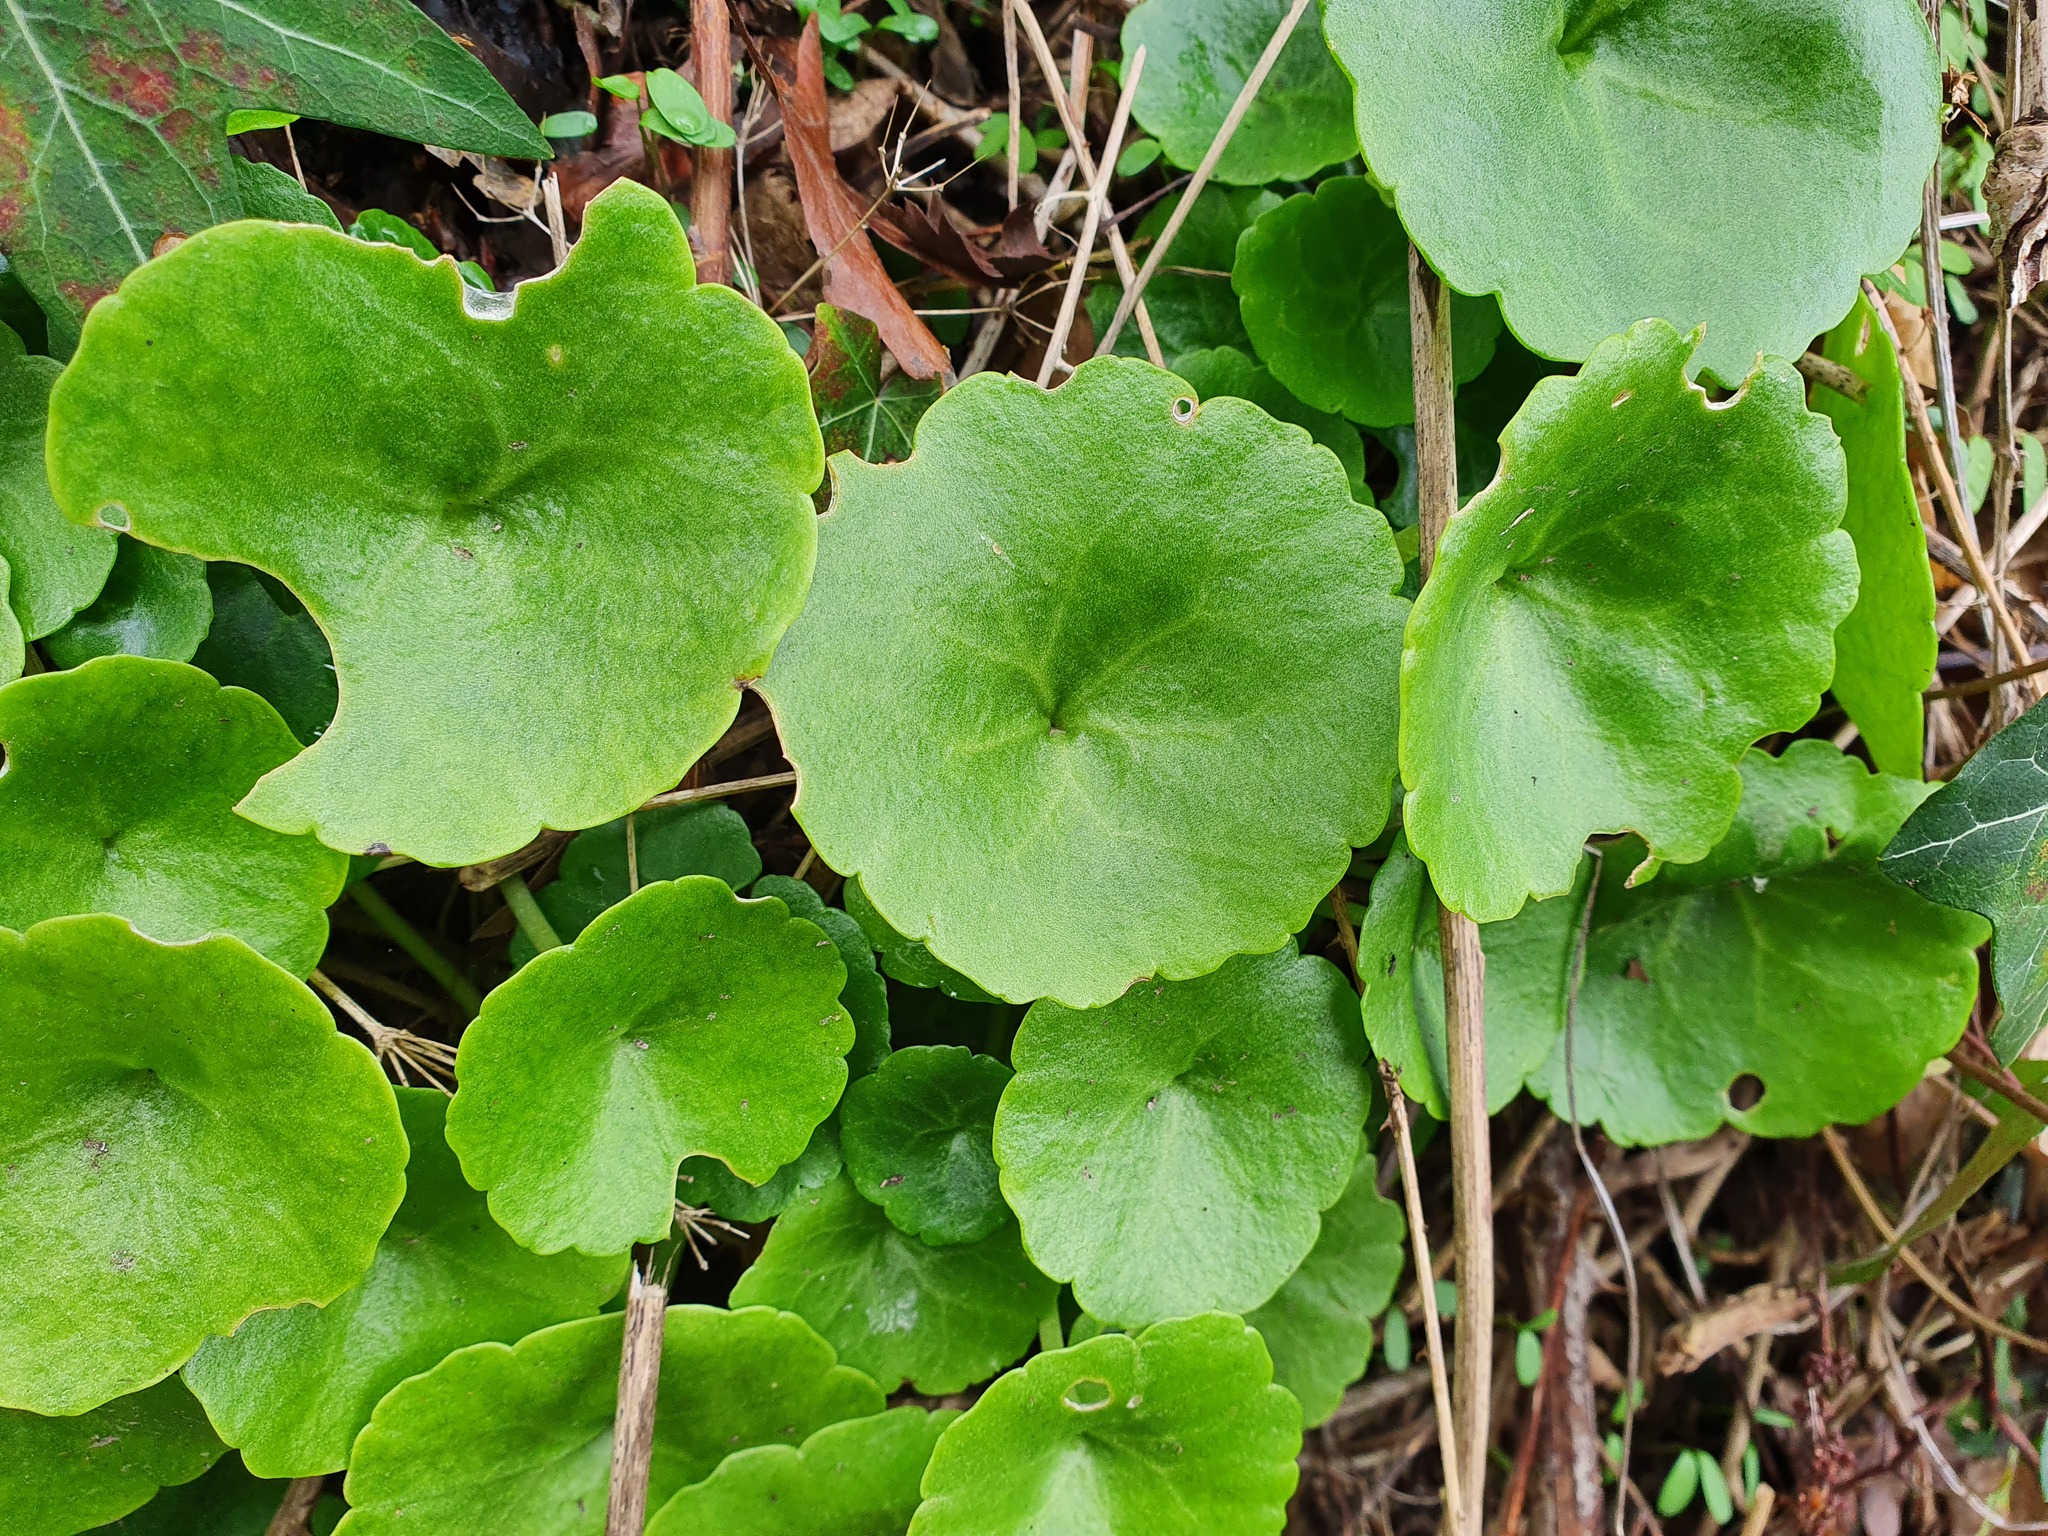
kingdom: Plantae
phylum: Tracheophyta
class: Magnoliopsida
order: Saxifragales
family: Crassulaceae
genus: Umbilicus
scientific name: Umbilicus rupestris
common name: Navelwort
